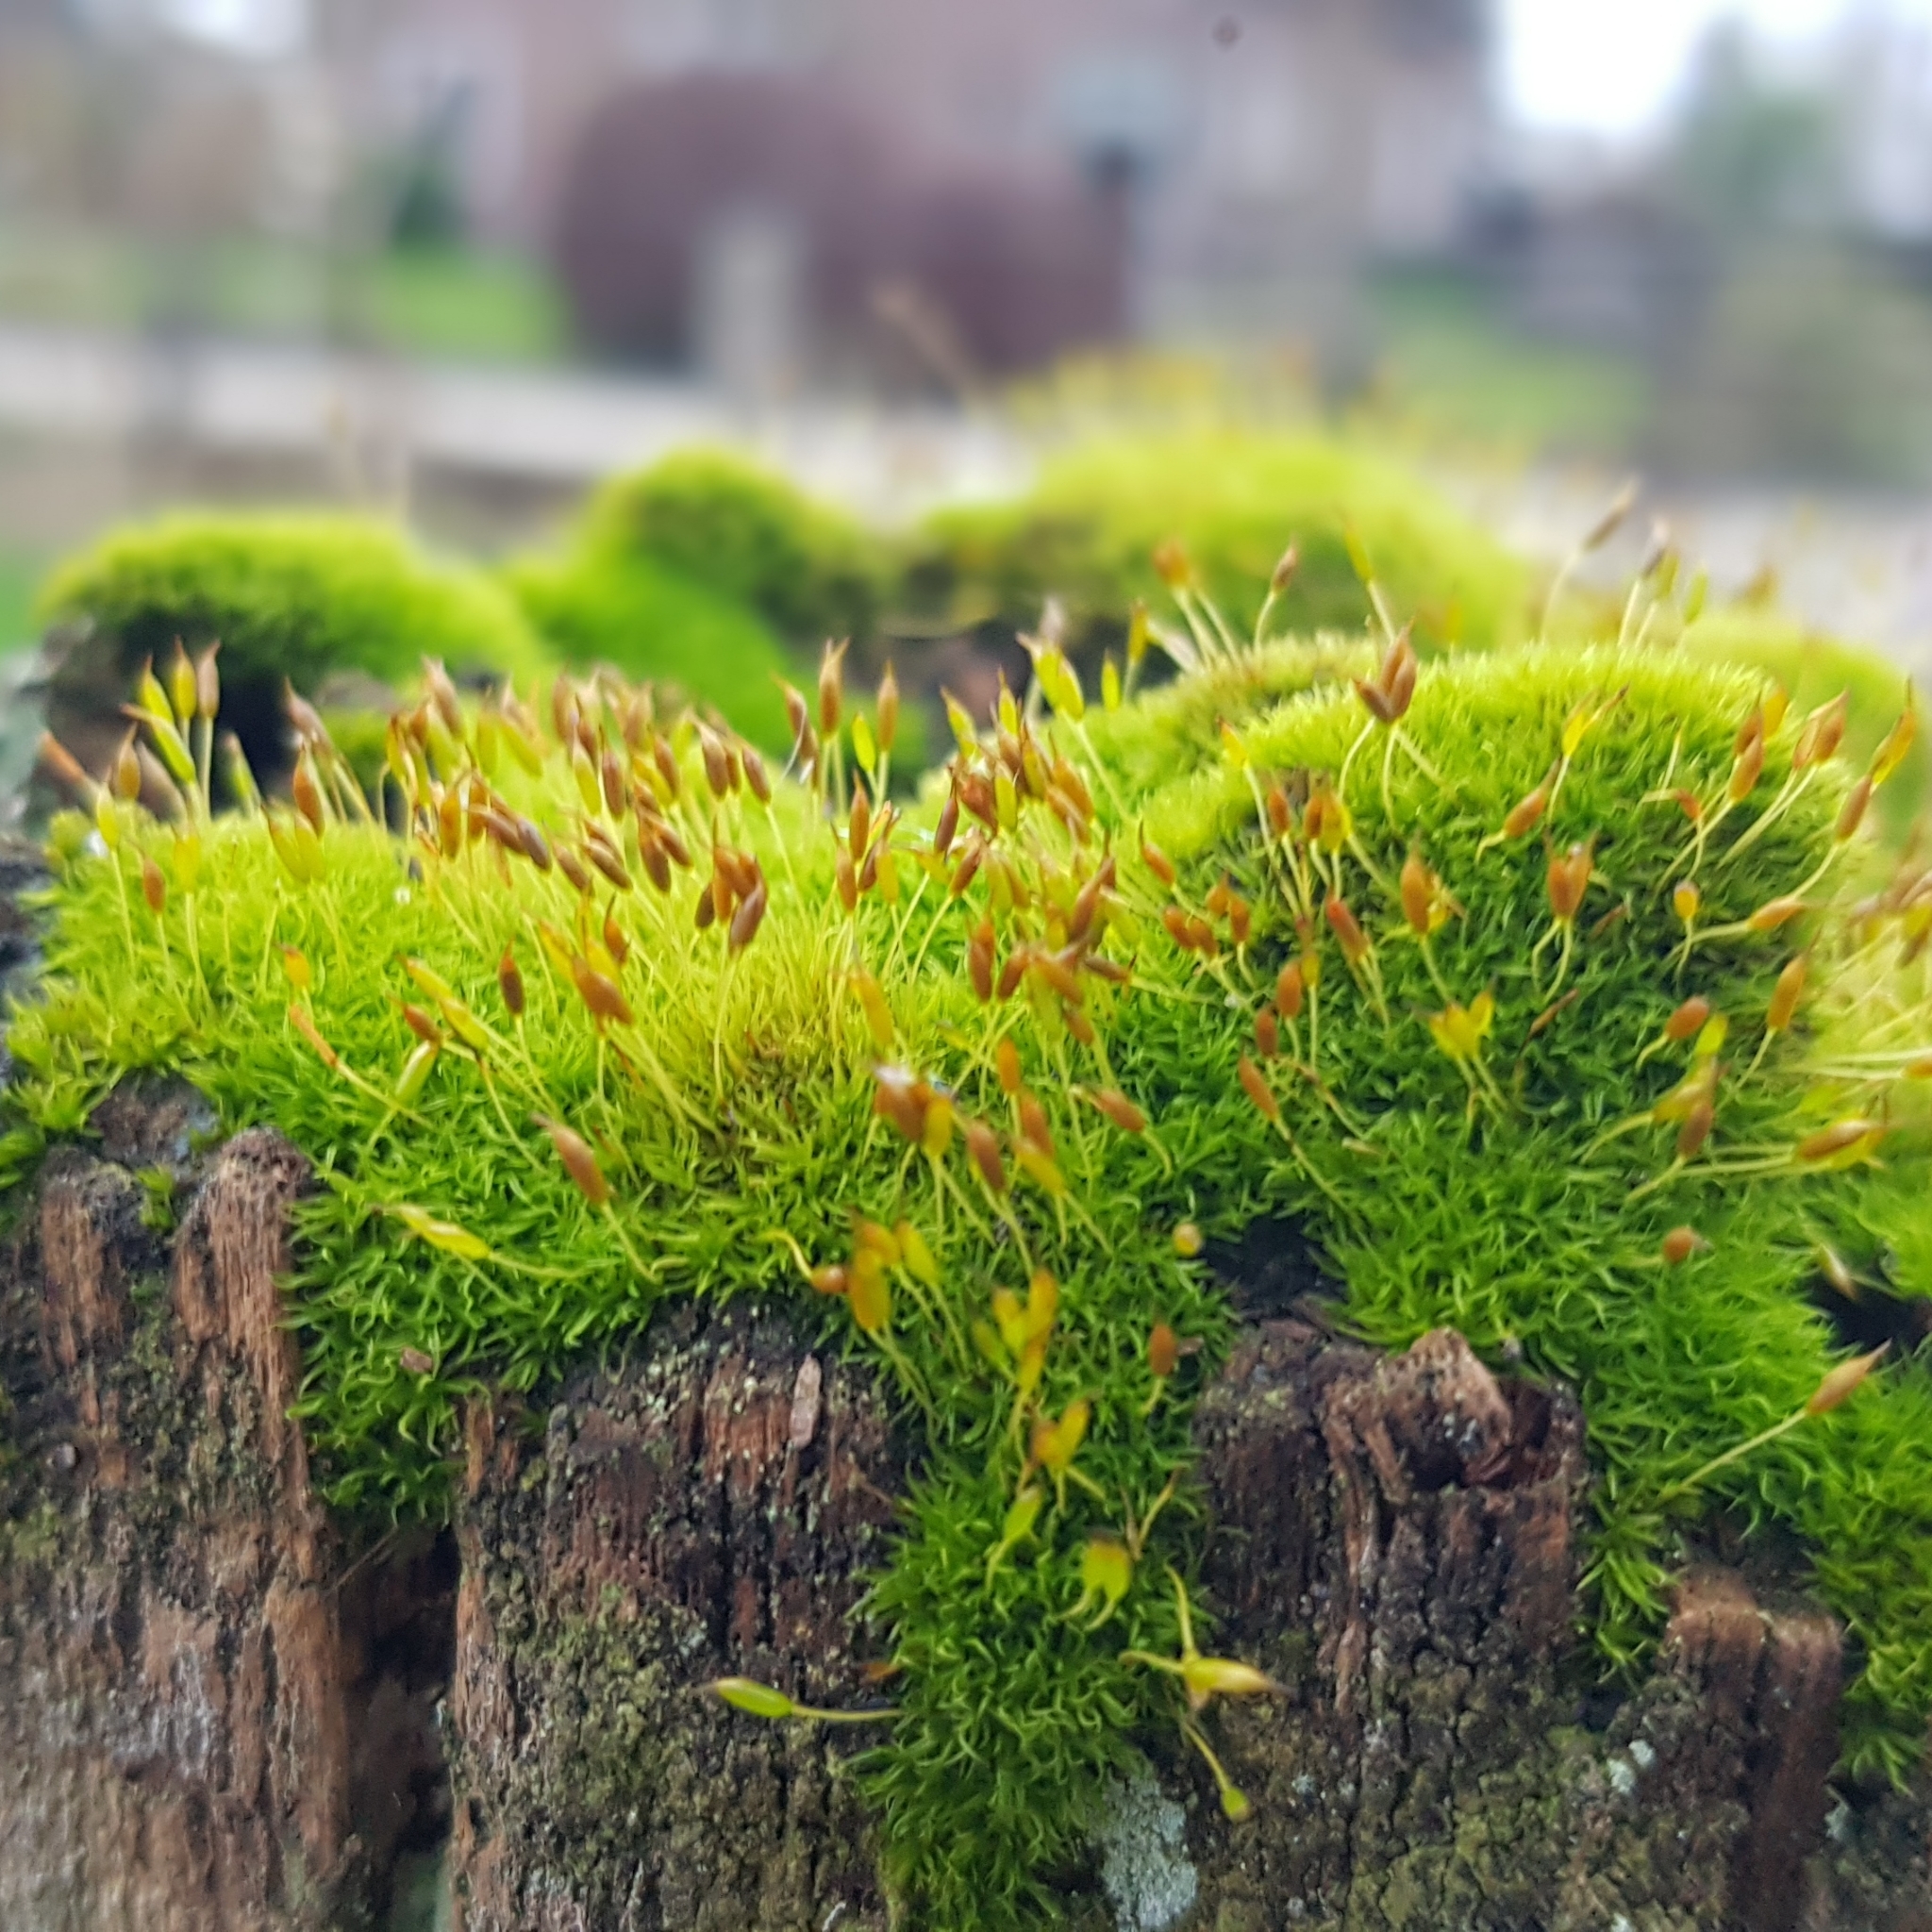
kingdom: Plantae
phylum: Bryophyta
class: Bryopsida
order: Dicranales
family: Rhabdoweisiaceae
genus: Dicranoweisia
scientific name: Dicranoweisia cirrata
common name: Common pincushion
